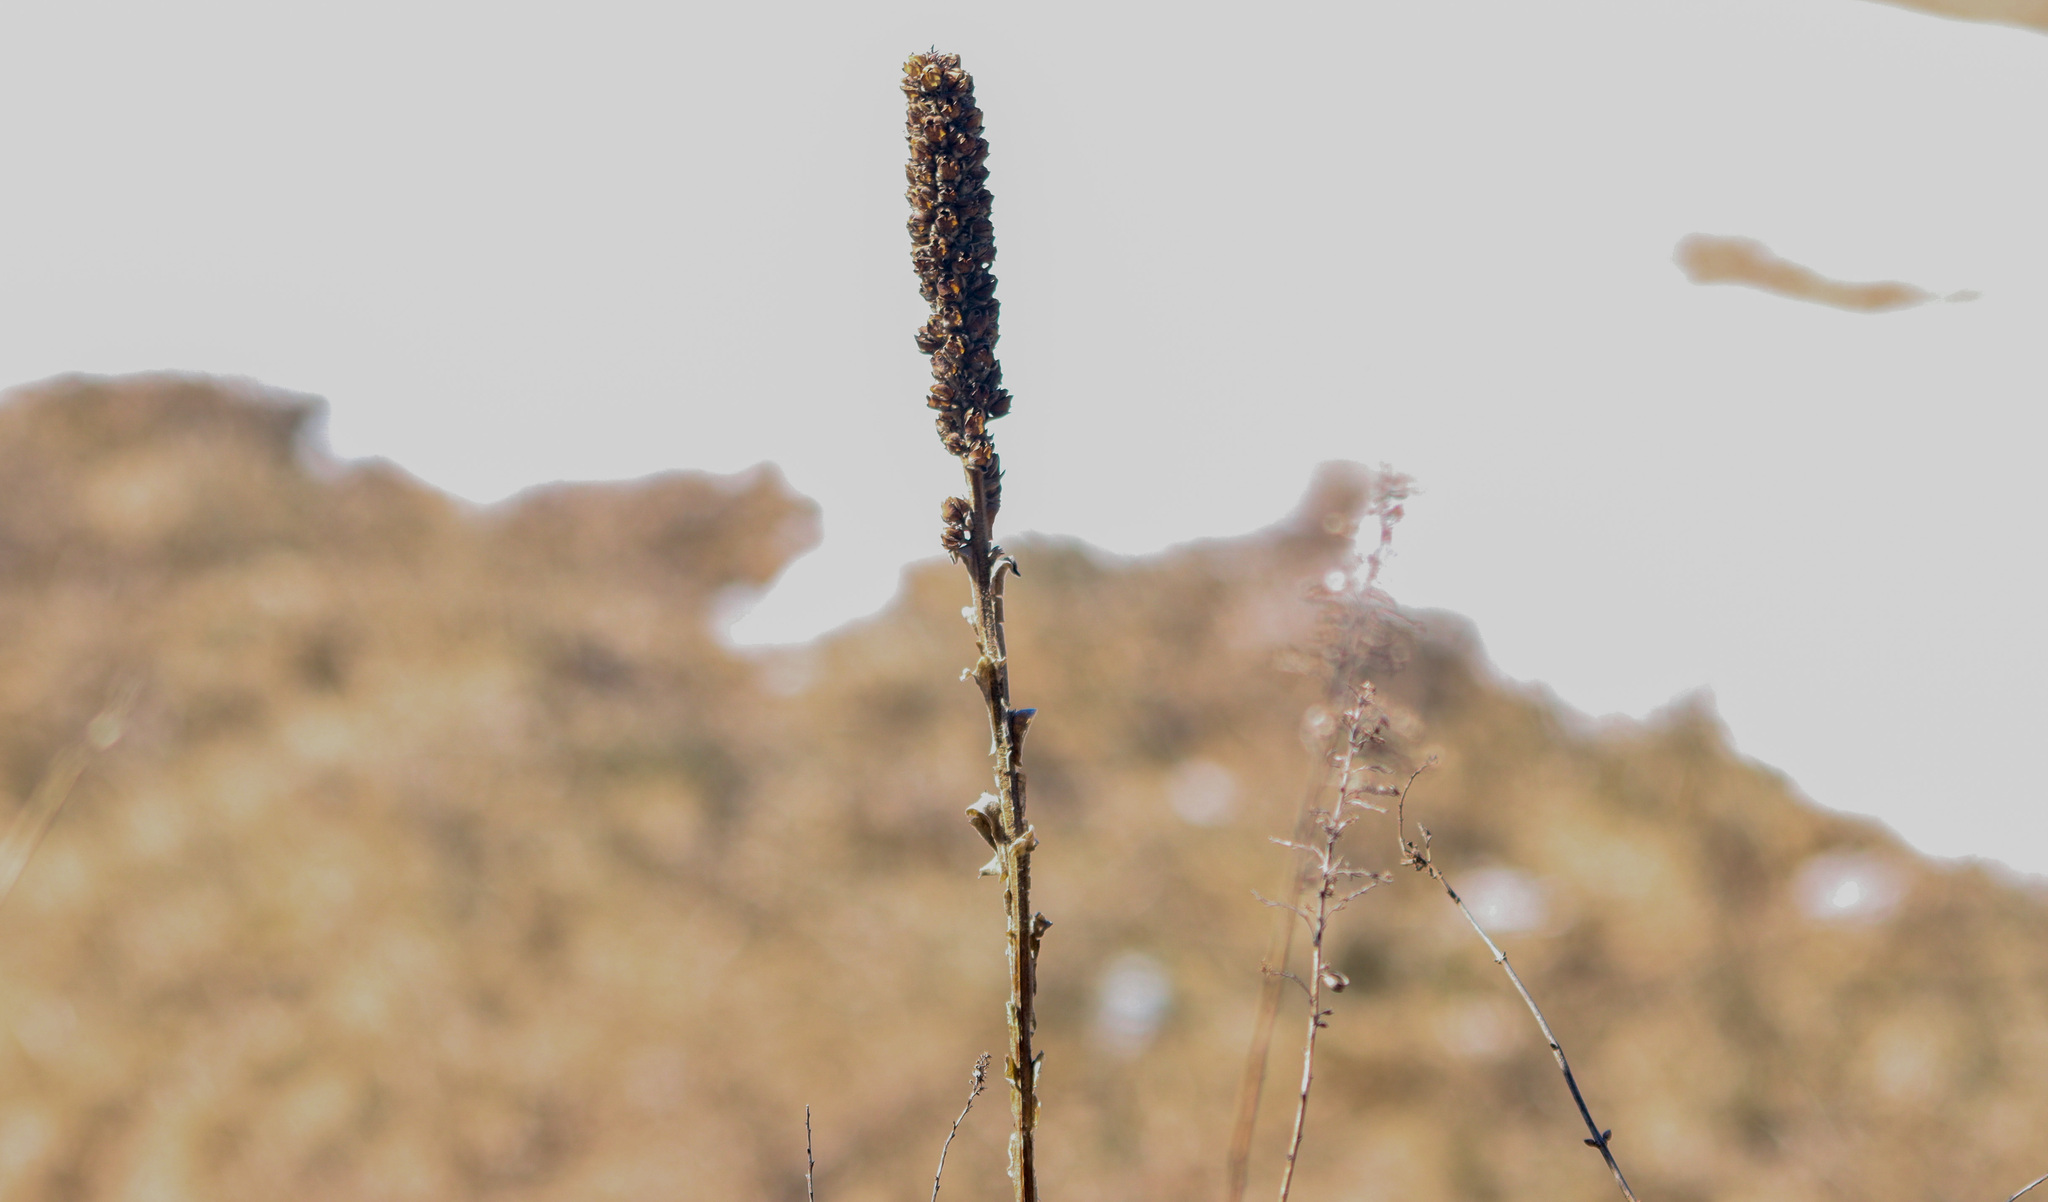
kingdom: Plantae
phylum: Tracheophyta
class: Magnoliopsida
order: Lamiales
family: Scrophulariaceae
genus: Verbascum
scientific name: Verbascum thapsus
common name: Common mullein
